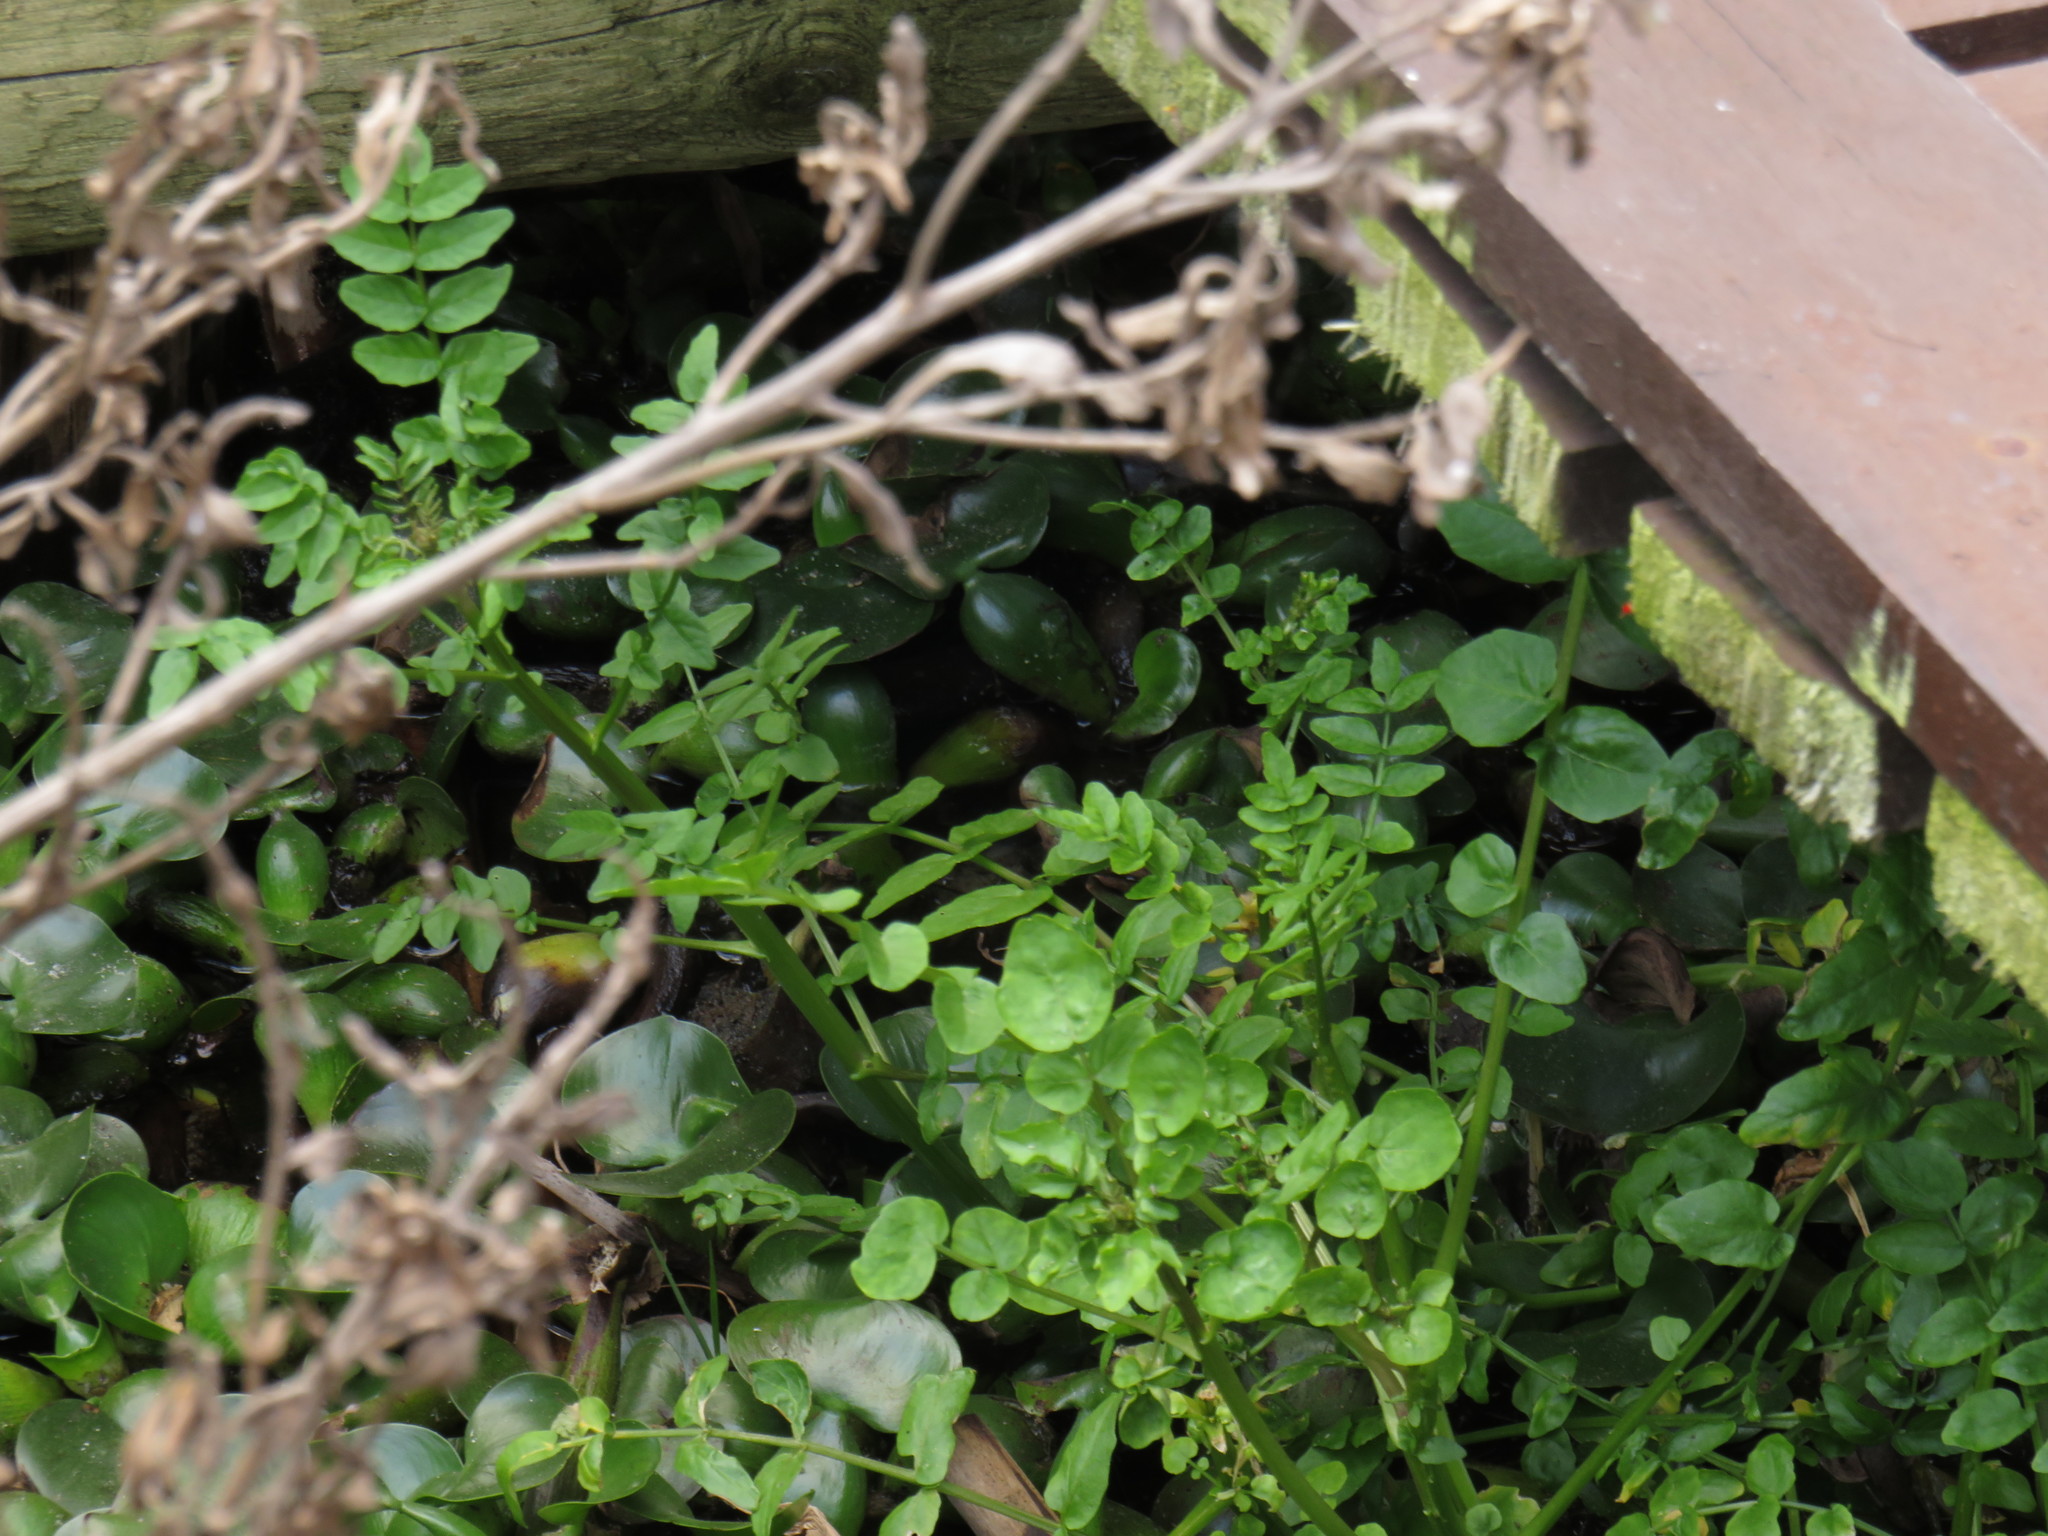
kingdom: Plantae
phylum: Tracheophyta
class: Magnoliopsida
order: Brassicales
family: Brassicaceae
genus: Nasturtium
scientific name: Nasturtium officinale
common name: Watercress
